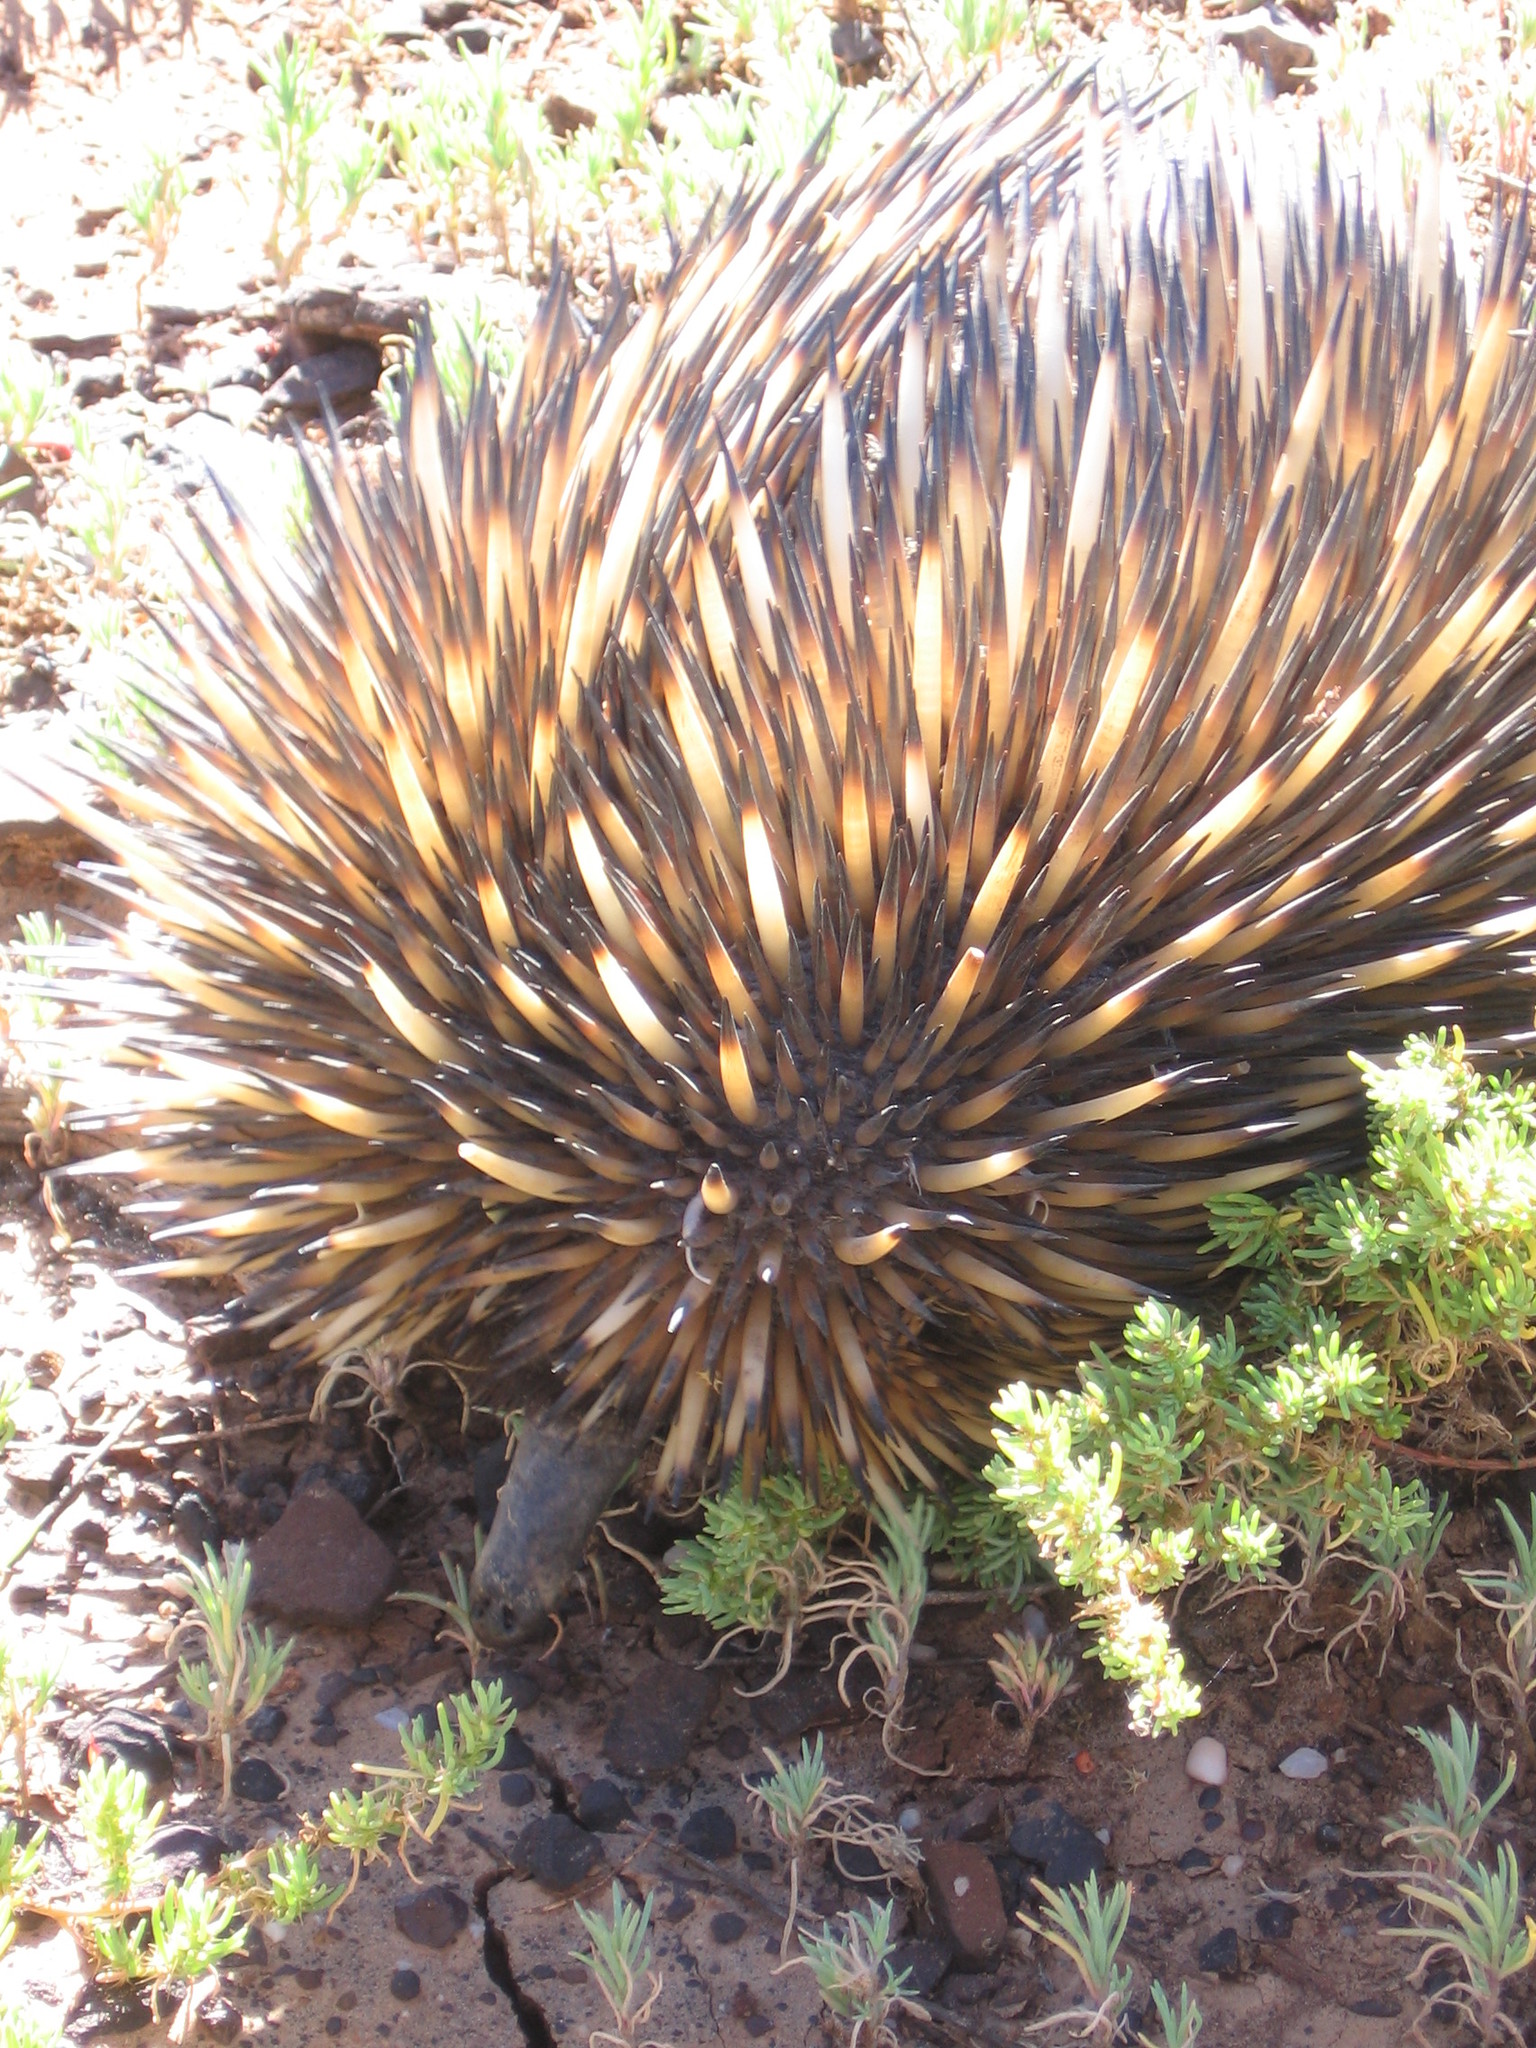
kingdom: Animalia
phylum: Chordata
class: Mammalia
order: Monotremata
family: Tachyglossidae
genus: Tachyglossus
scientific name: Tachyglossus aculeatus
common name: Short-beaked echidna
